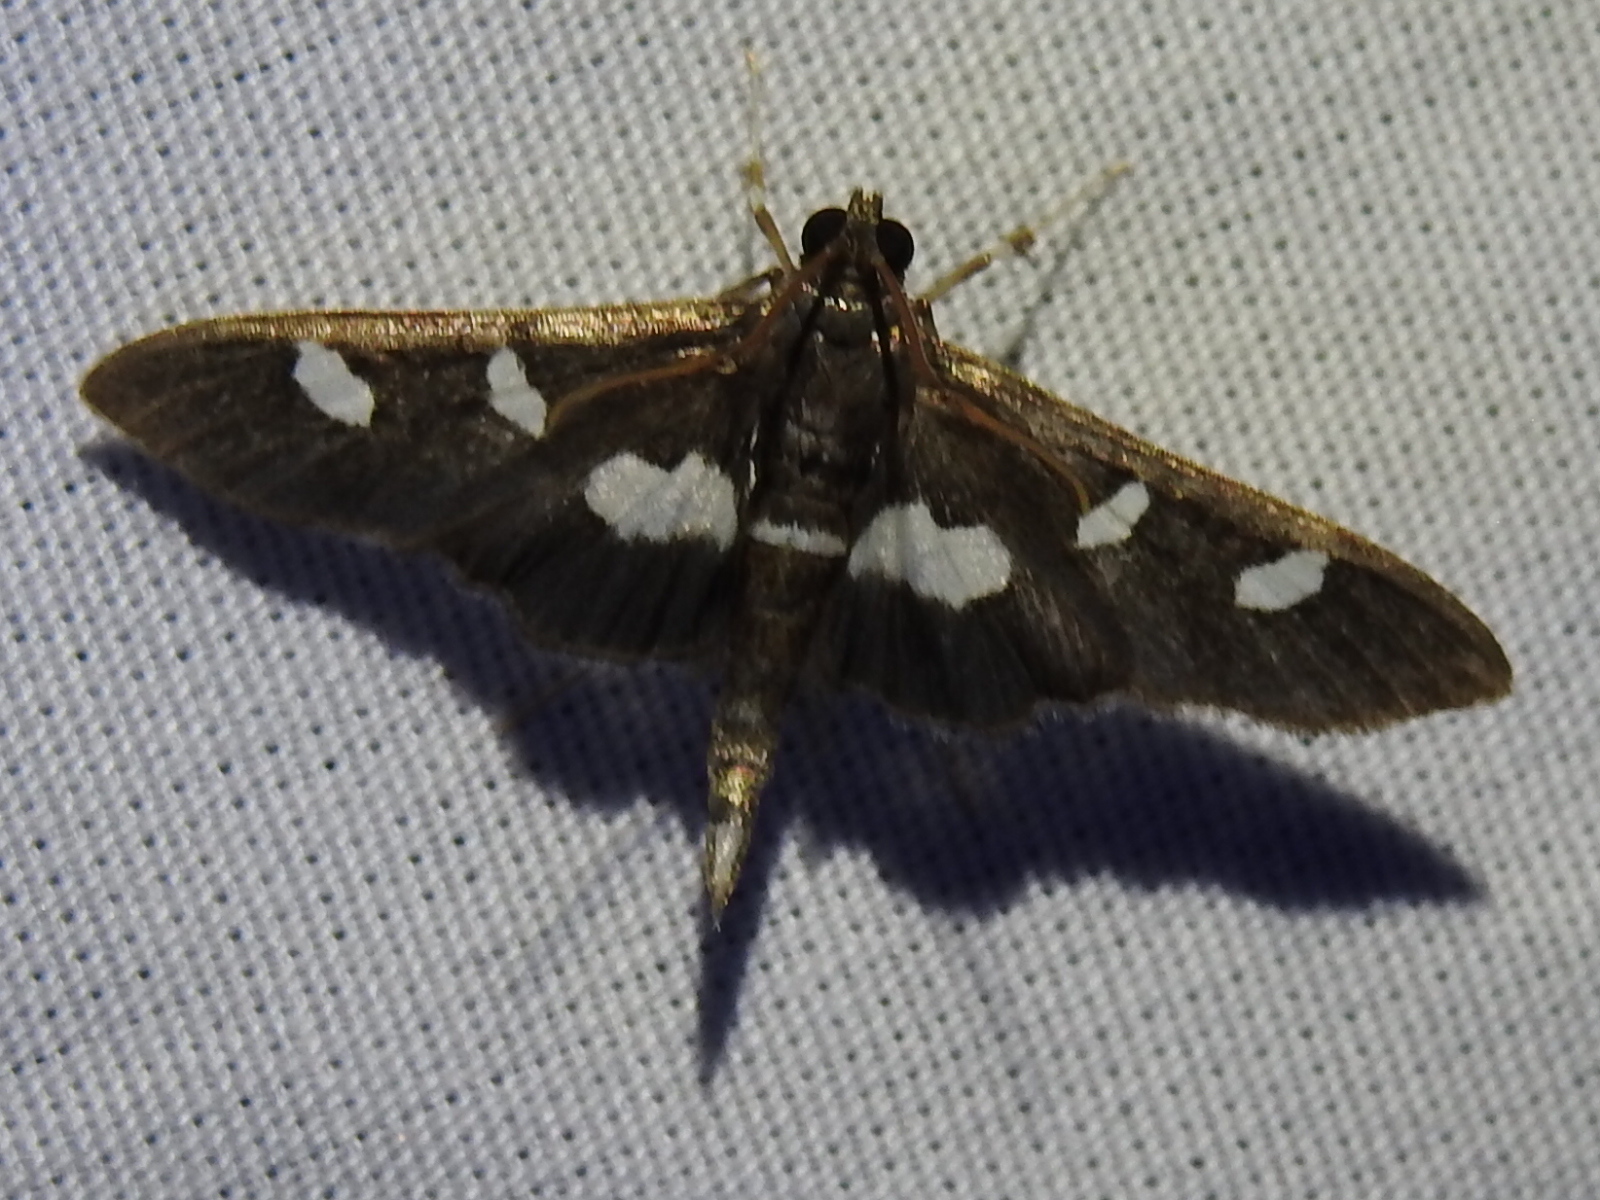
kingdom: Animalia
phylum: Arthropoda
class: Insecta
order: Lepidoptera
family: Crambidae
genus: Desmia
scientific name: Desmia
